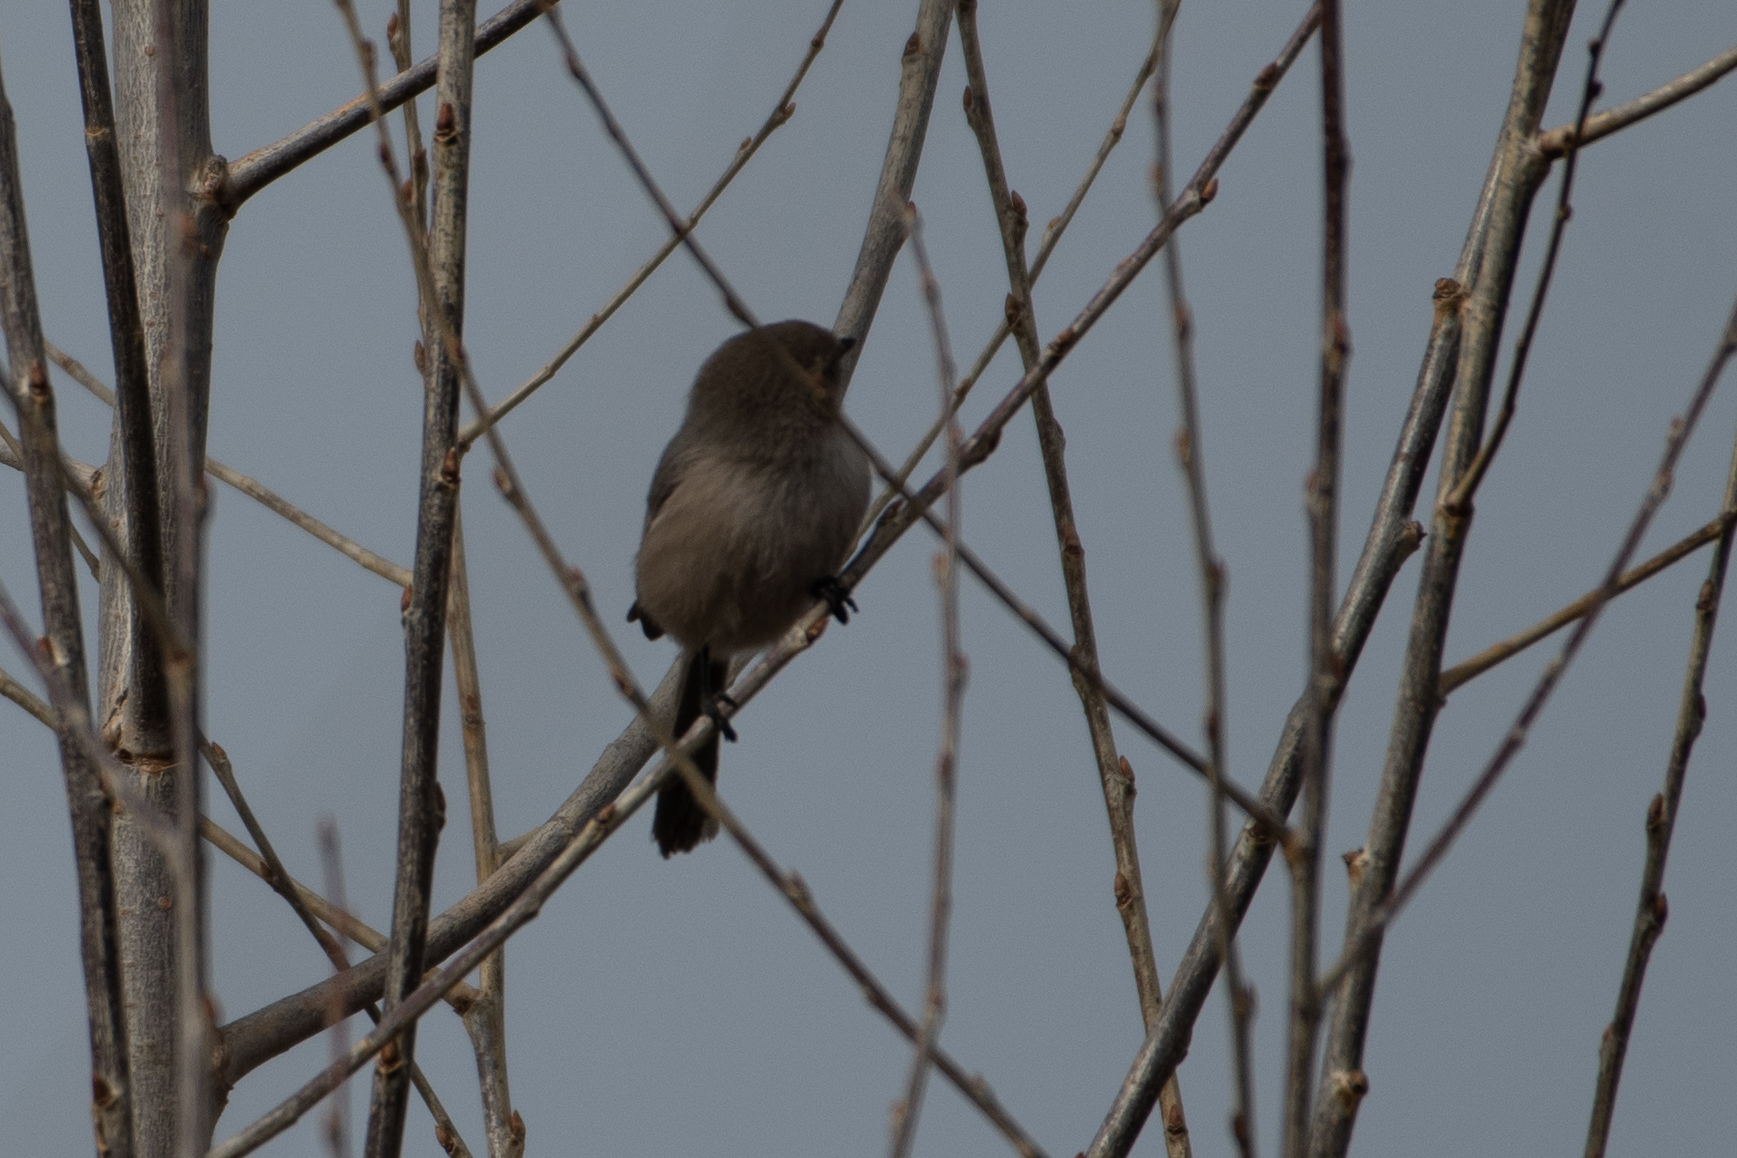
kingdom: Animalia
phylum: Chordata
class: Aves
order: Passeriformes
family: Aegithalidae
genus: Psaltriparus
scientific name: Psaltriparus minimus
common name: American bushtit
